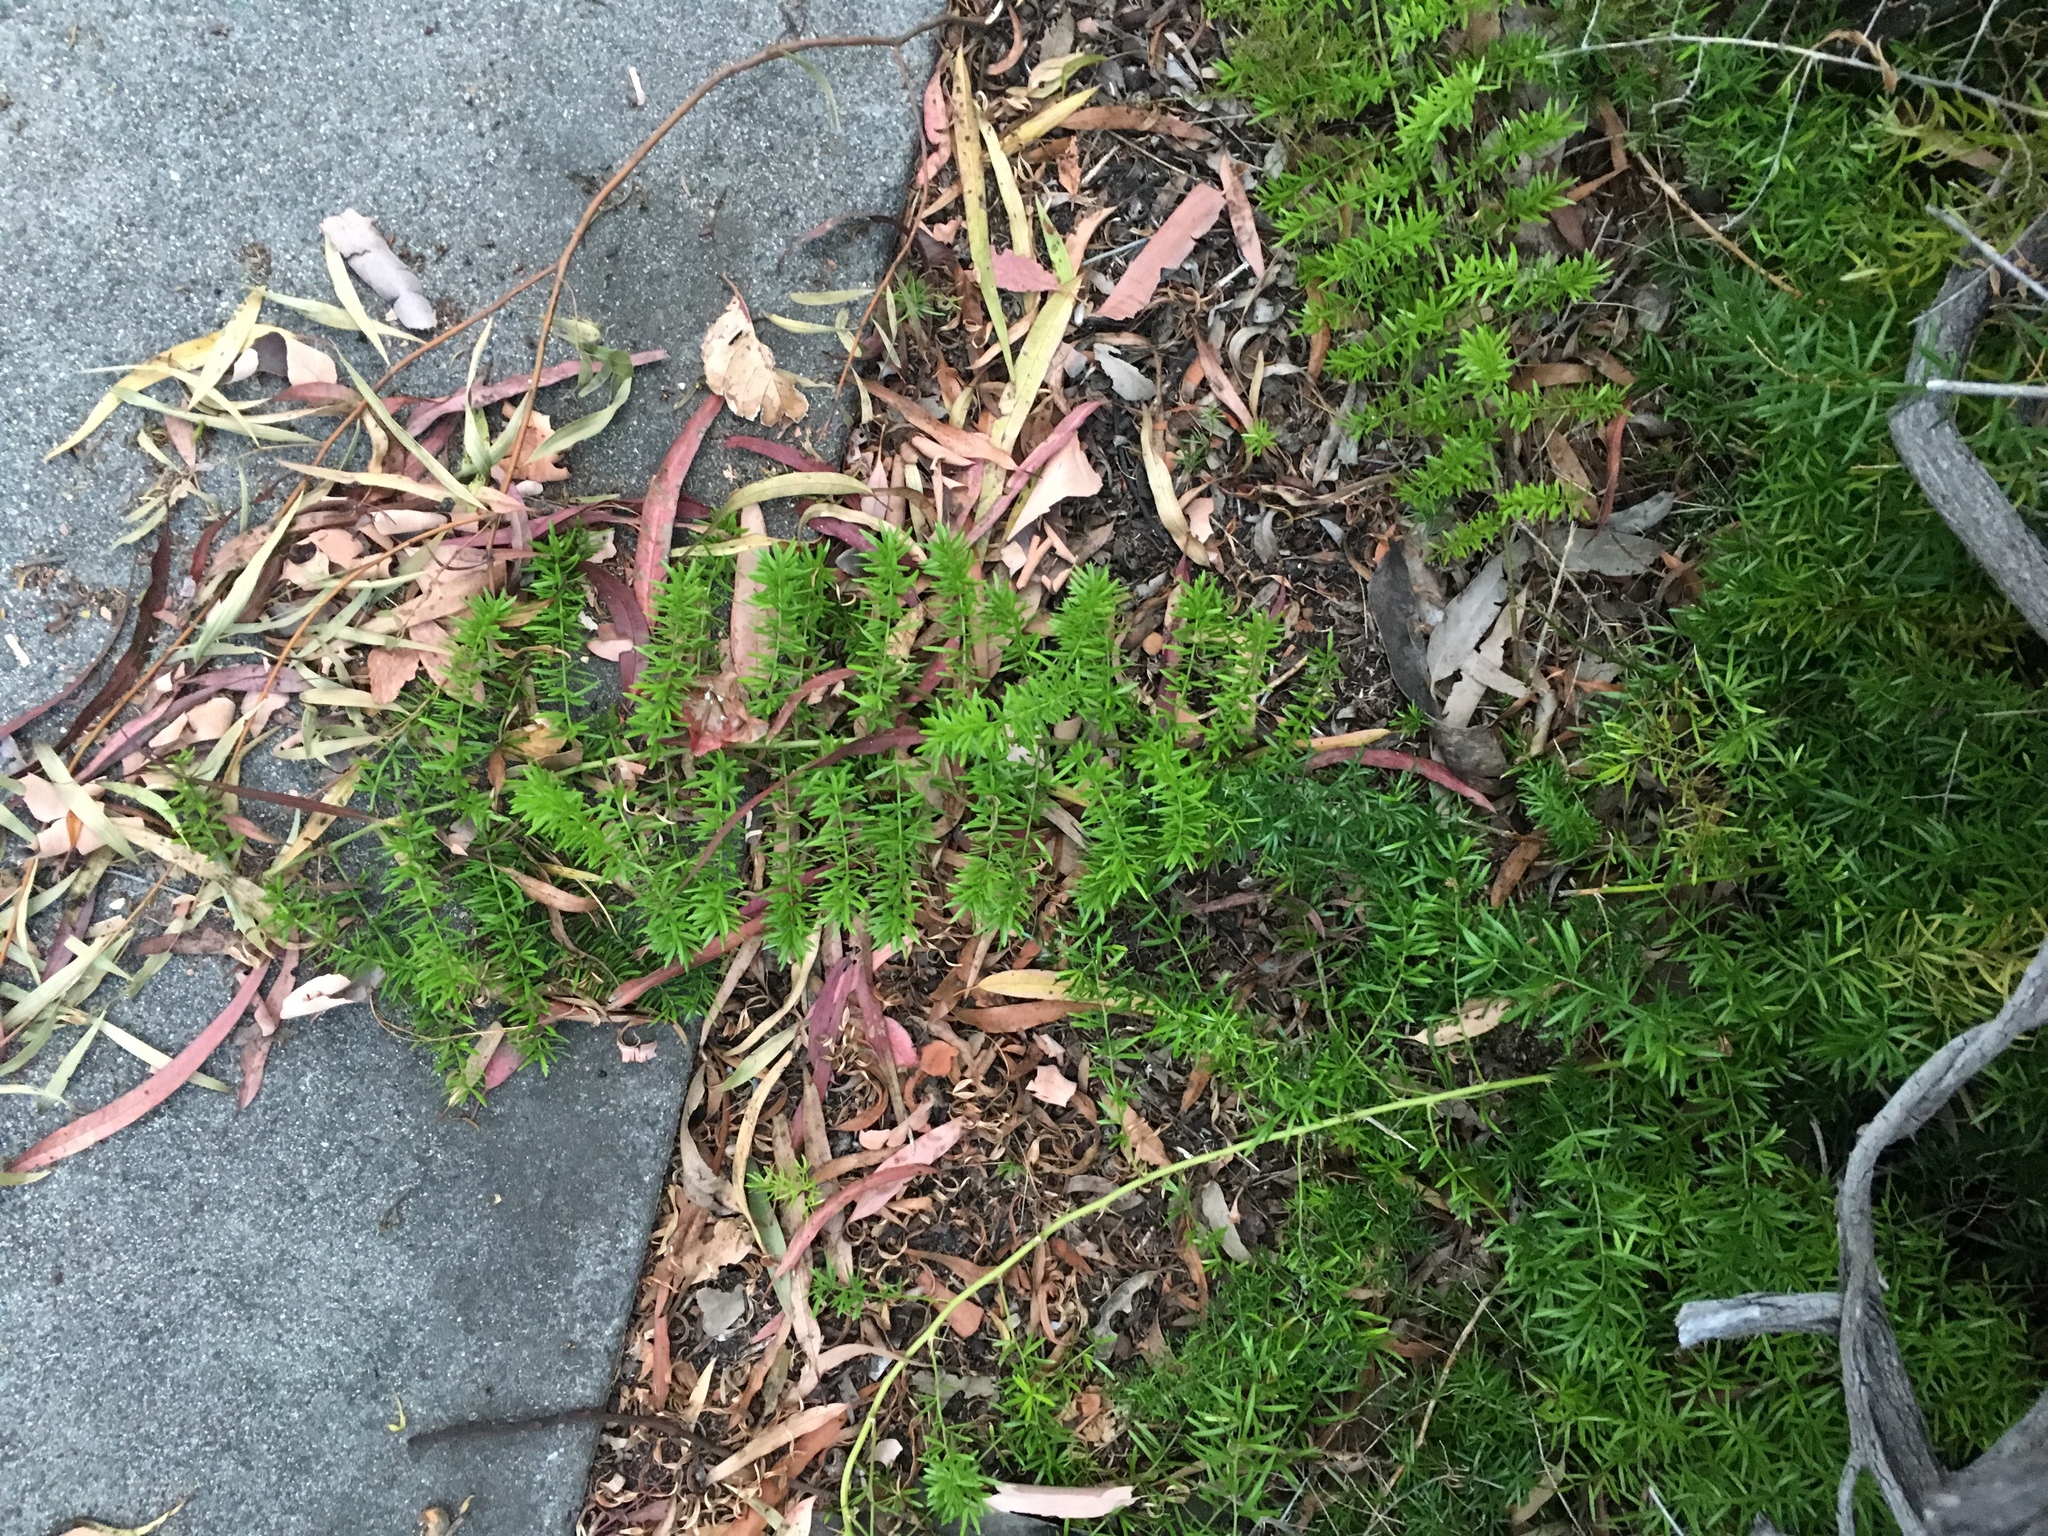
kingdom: Plantae
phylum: Tracheophyta
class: Liliopsida
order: Asparagales
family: Asparagaceae
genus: Asparagus
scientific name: Asparagus aethiopicus
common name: Sprenger's asparagus fern
